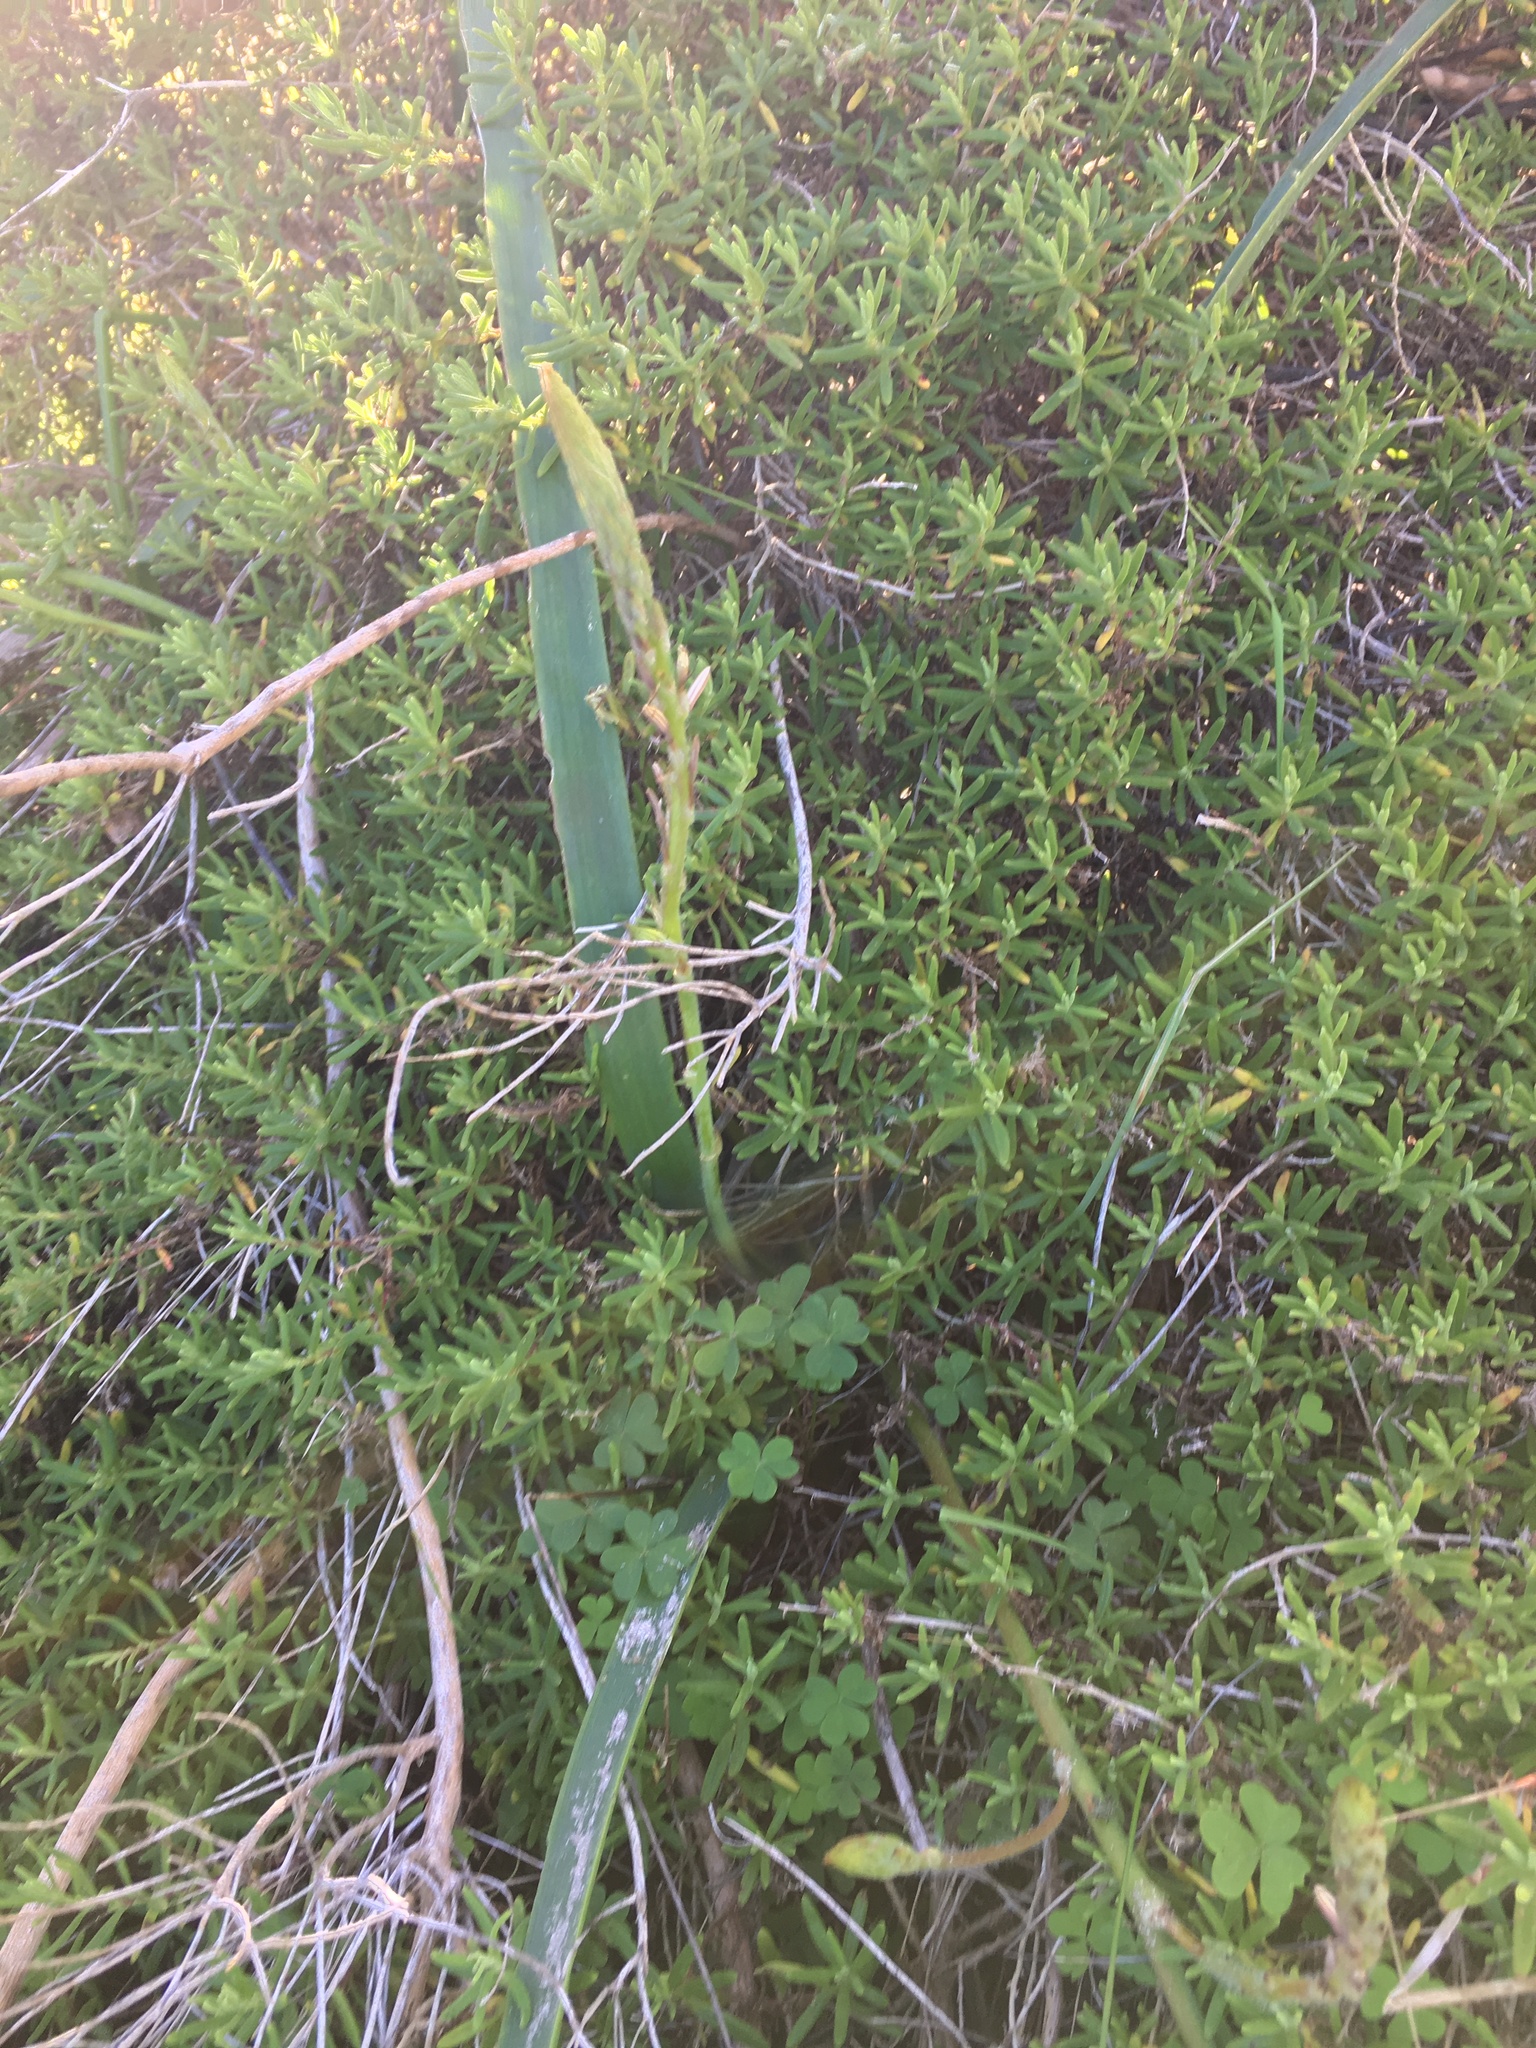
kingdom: Plantae
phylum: Tracheophyta
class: Liliopsida
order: Asparagales
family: Asphodelaceae
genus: Trachyandra
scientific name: Trachyandra ciliata
